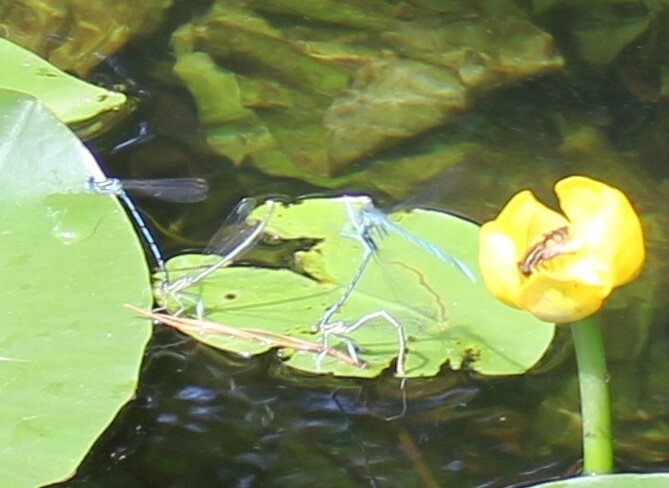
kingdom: Animalia
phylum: Arthropoda
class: Insecta
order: Diptera
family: Syrphidae
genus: Helophilus
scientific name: Helophilus hybridus
